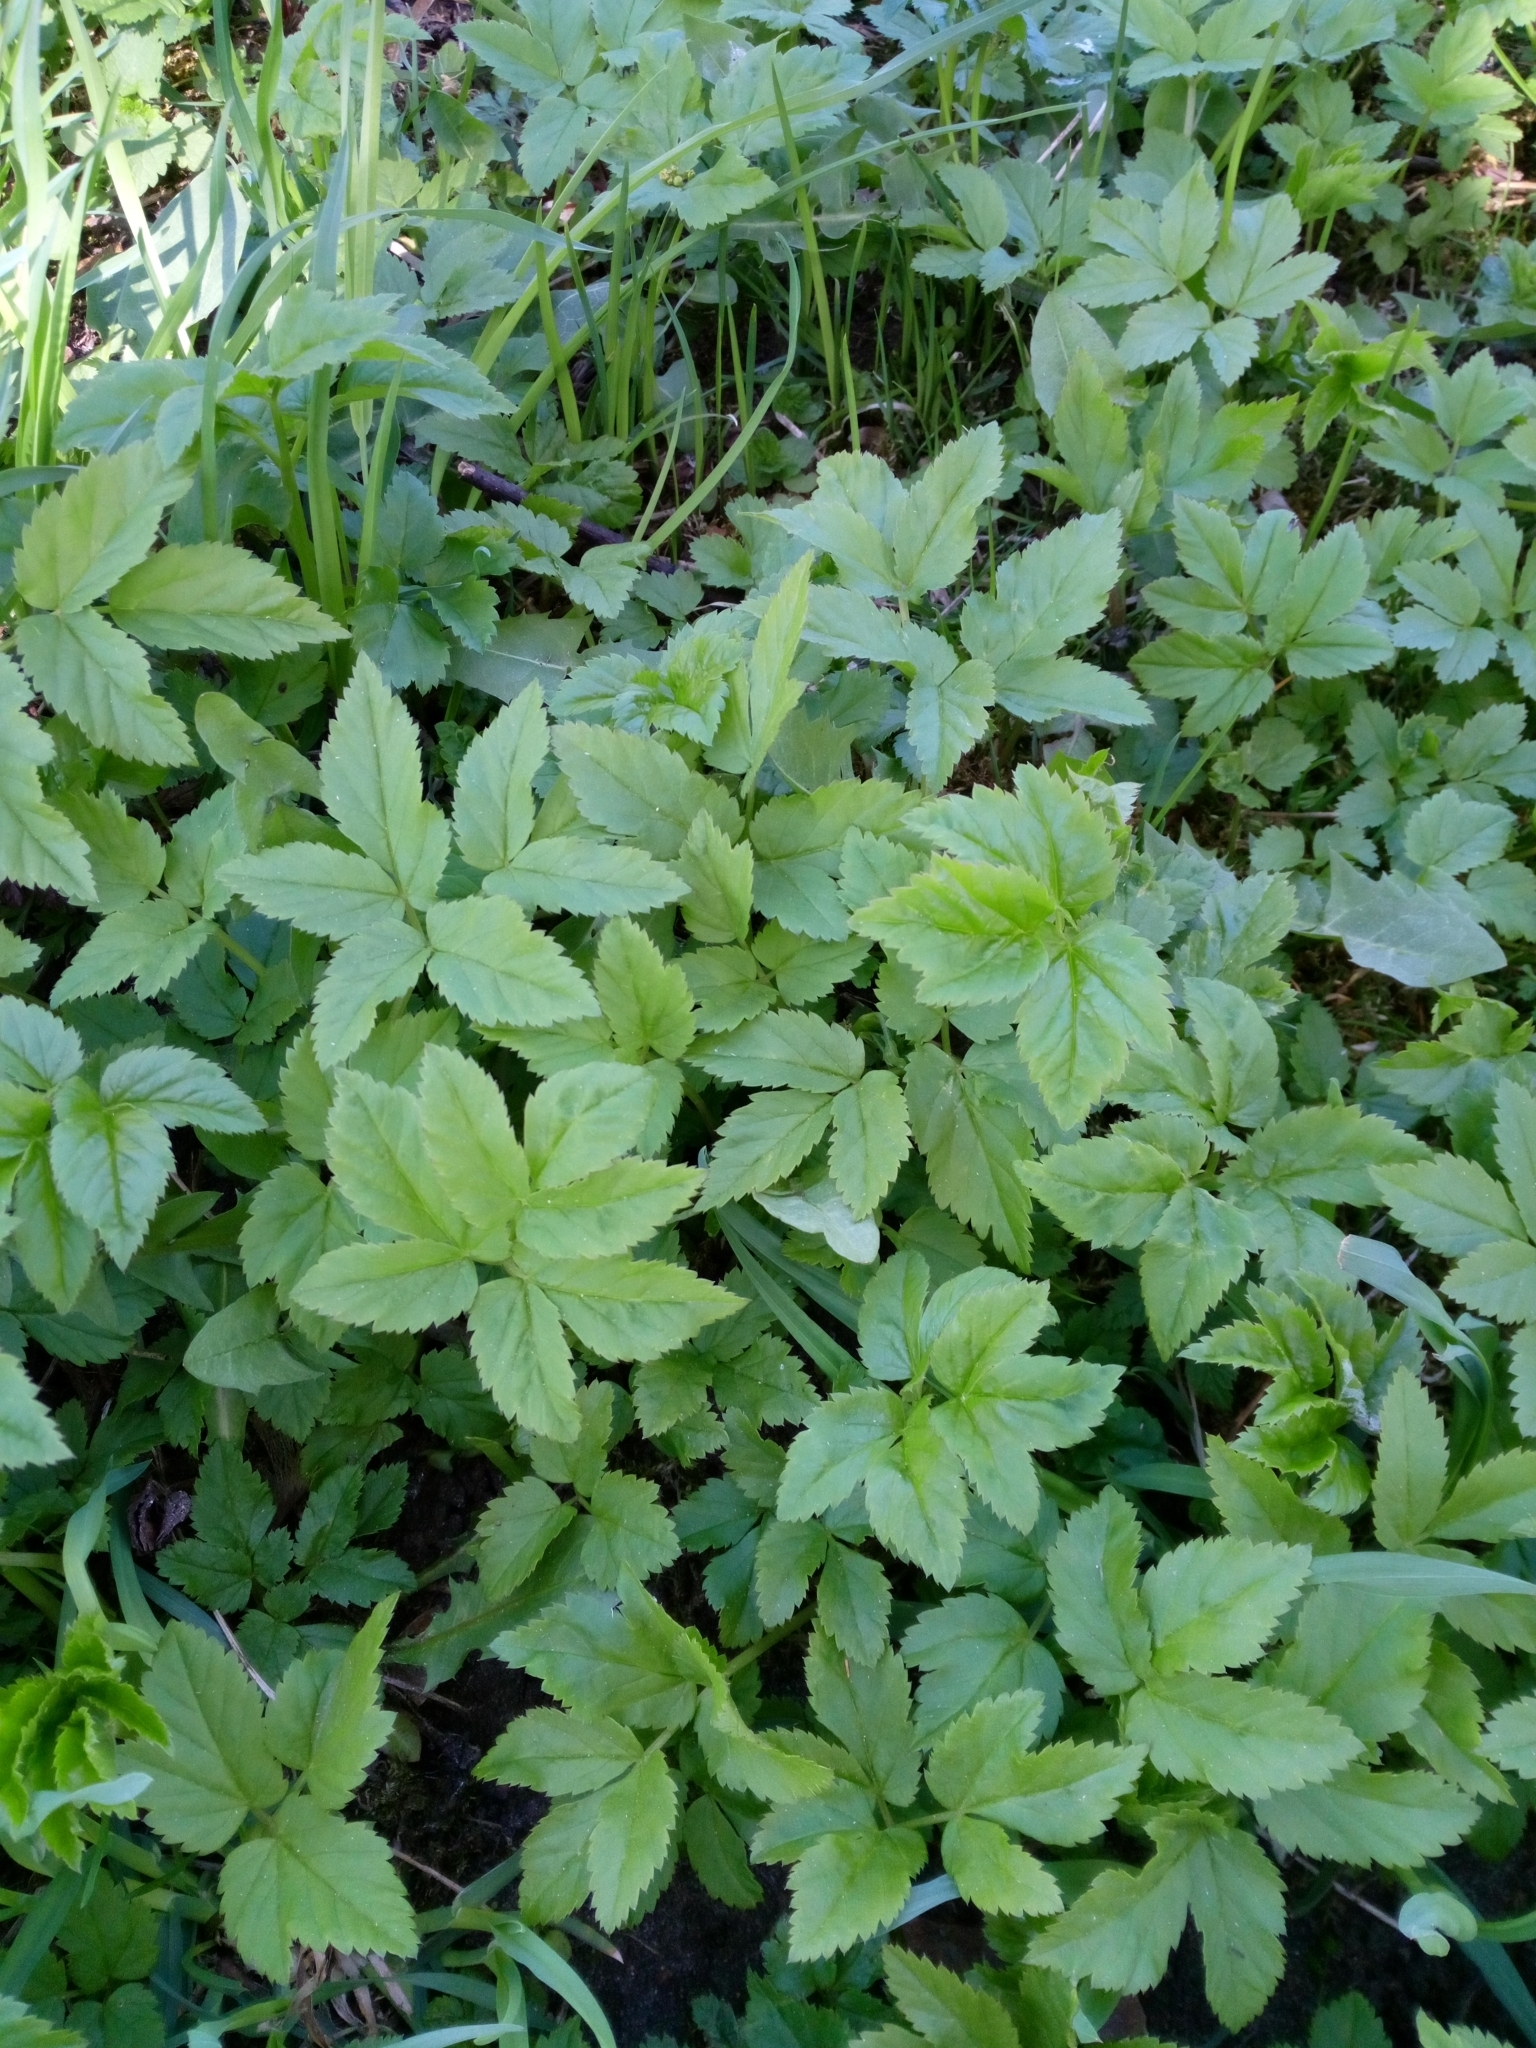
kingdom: Plantae
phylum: Tracheophyta
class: Magnoliopsida
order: Apiales
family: Apiaceae
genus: Aegopodium
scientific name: Aegopodium podagraria
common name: Ground-elder
